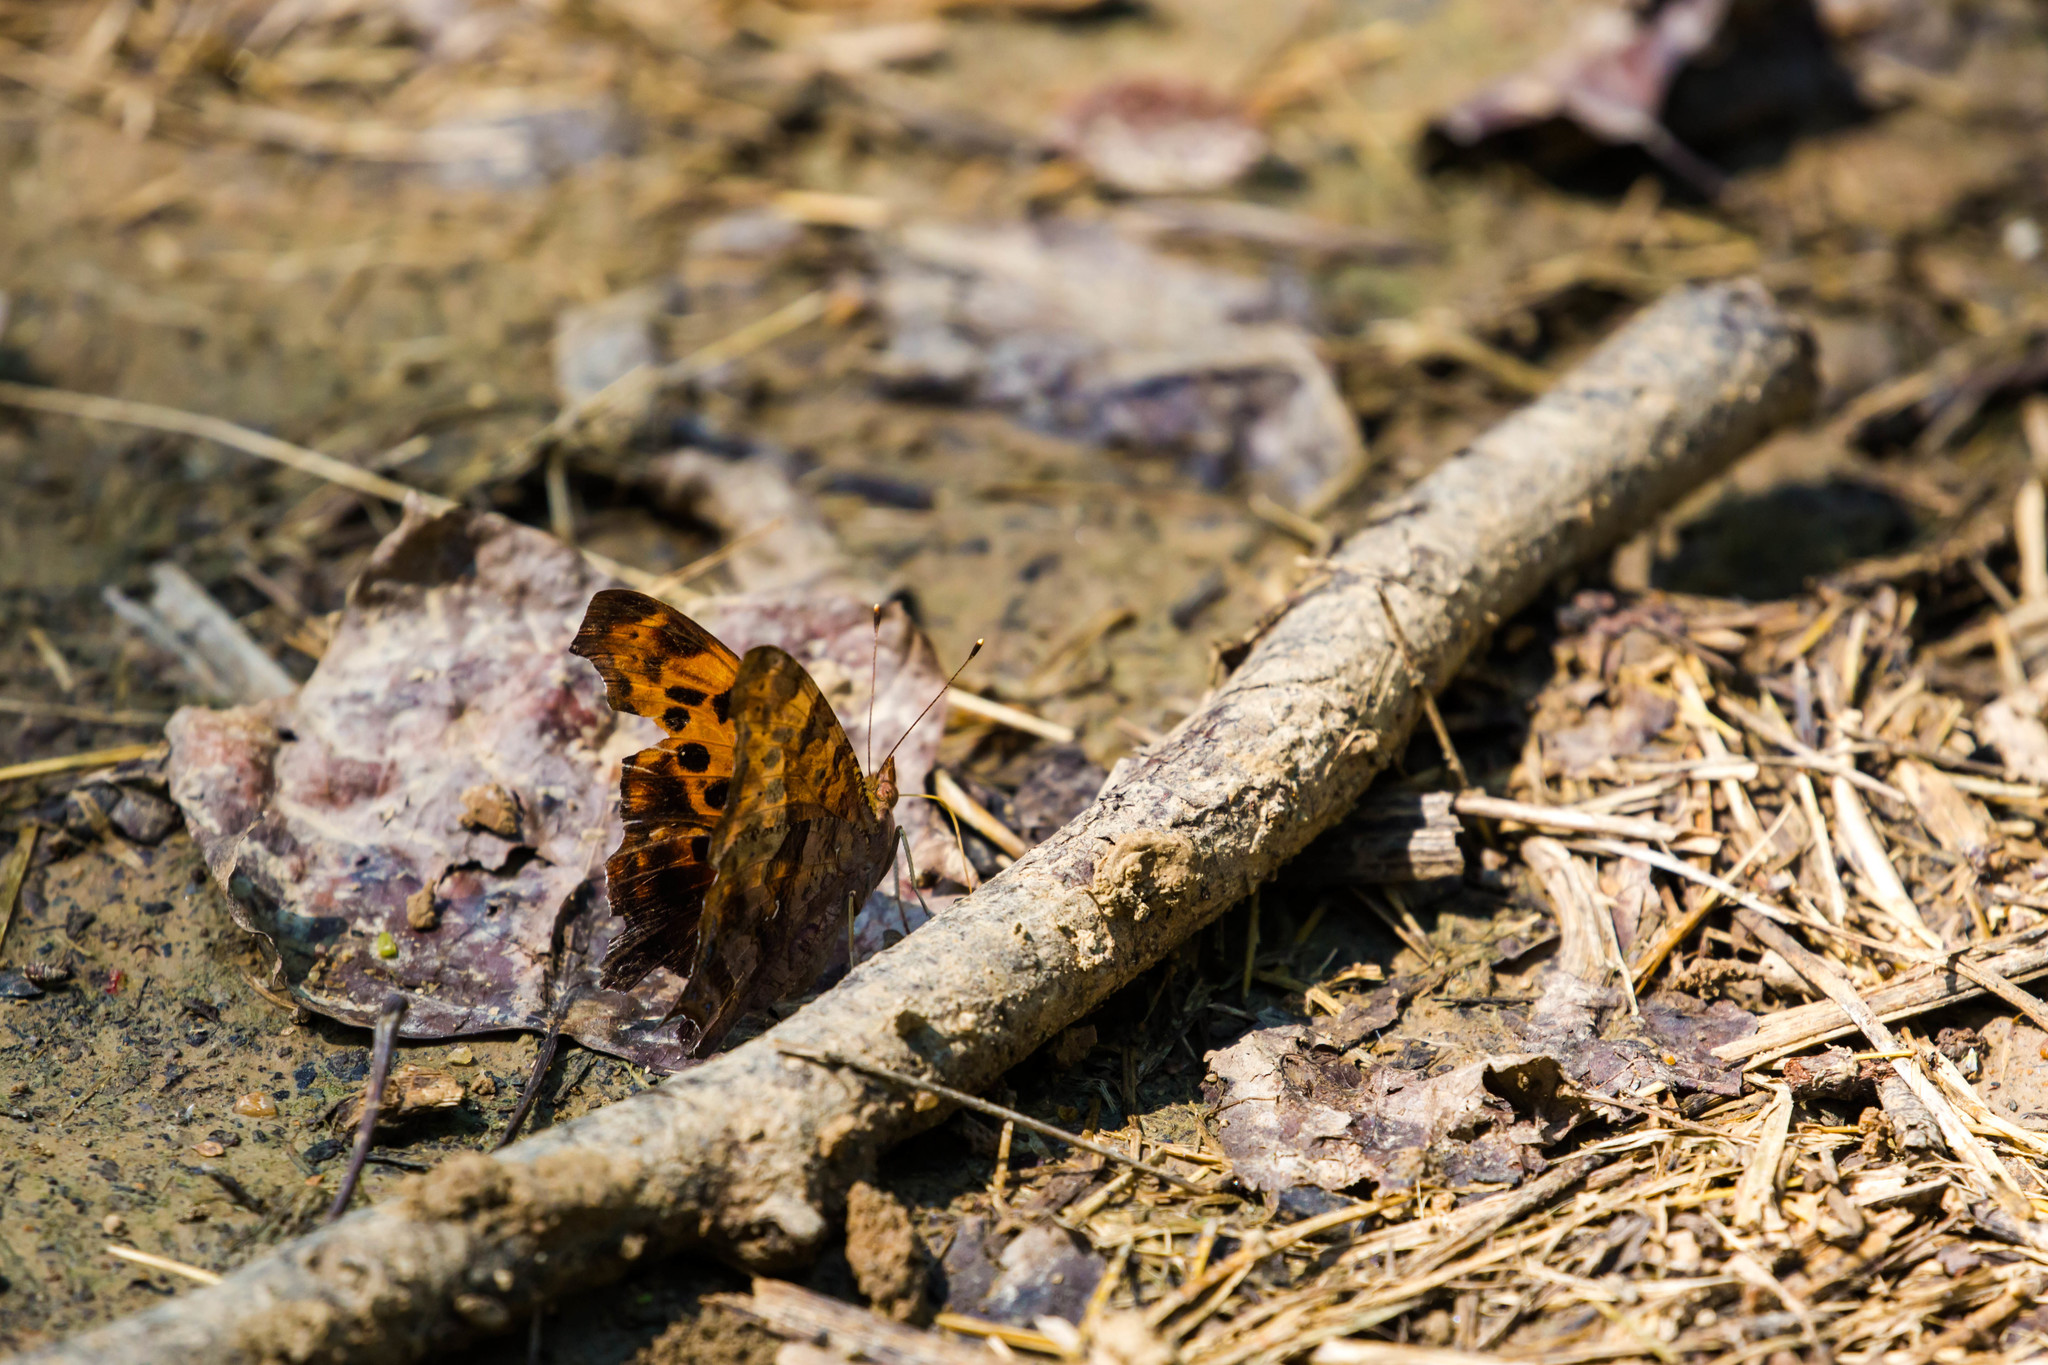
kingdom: Animalia
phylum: Arthropoda
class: Insecta
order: Lepidoptera
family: Nymphalidae
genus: Polygonia
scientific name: Polygonia interrogationis
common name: Question mark
